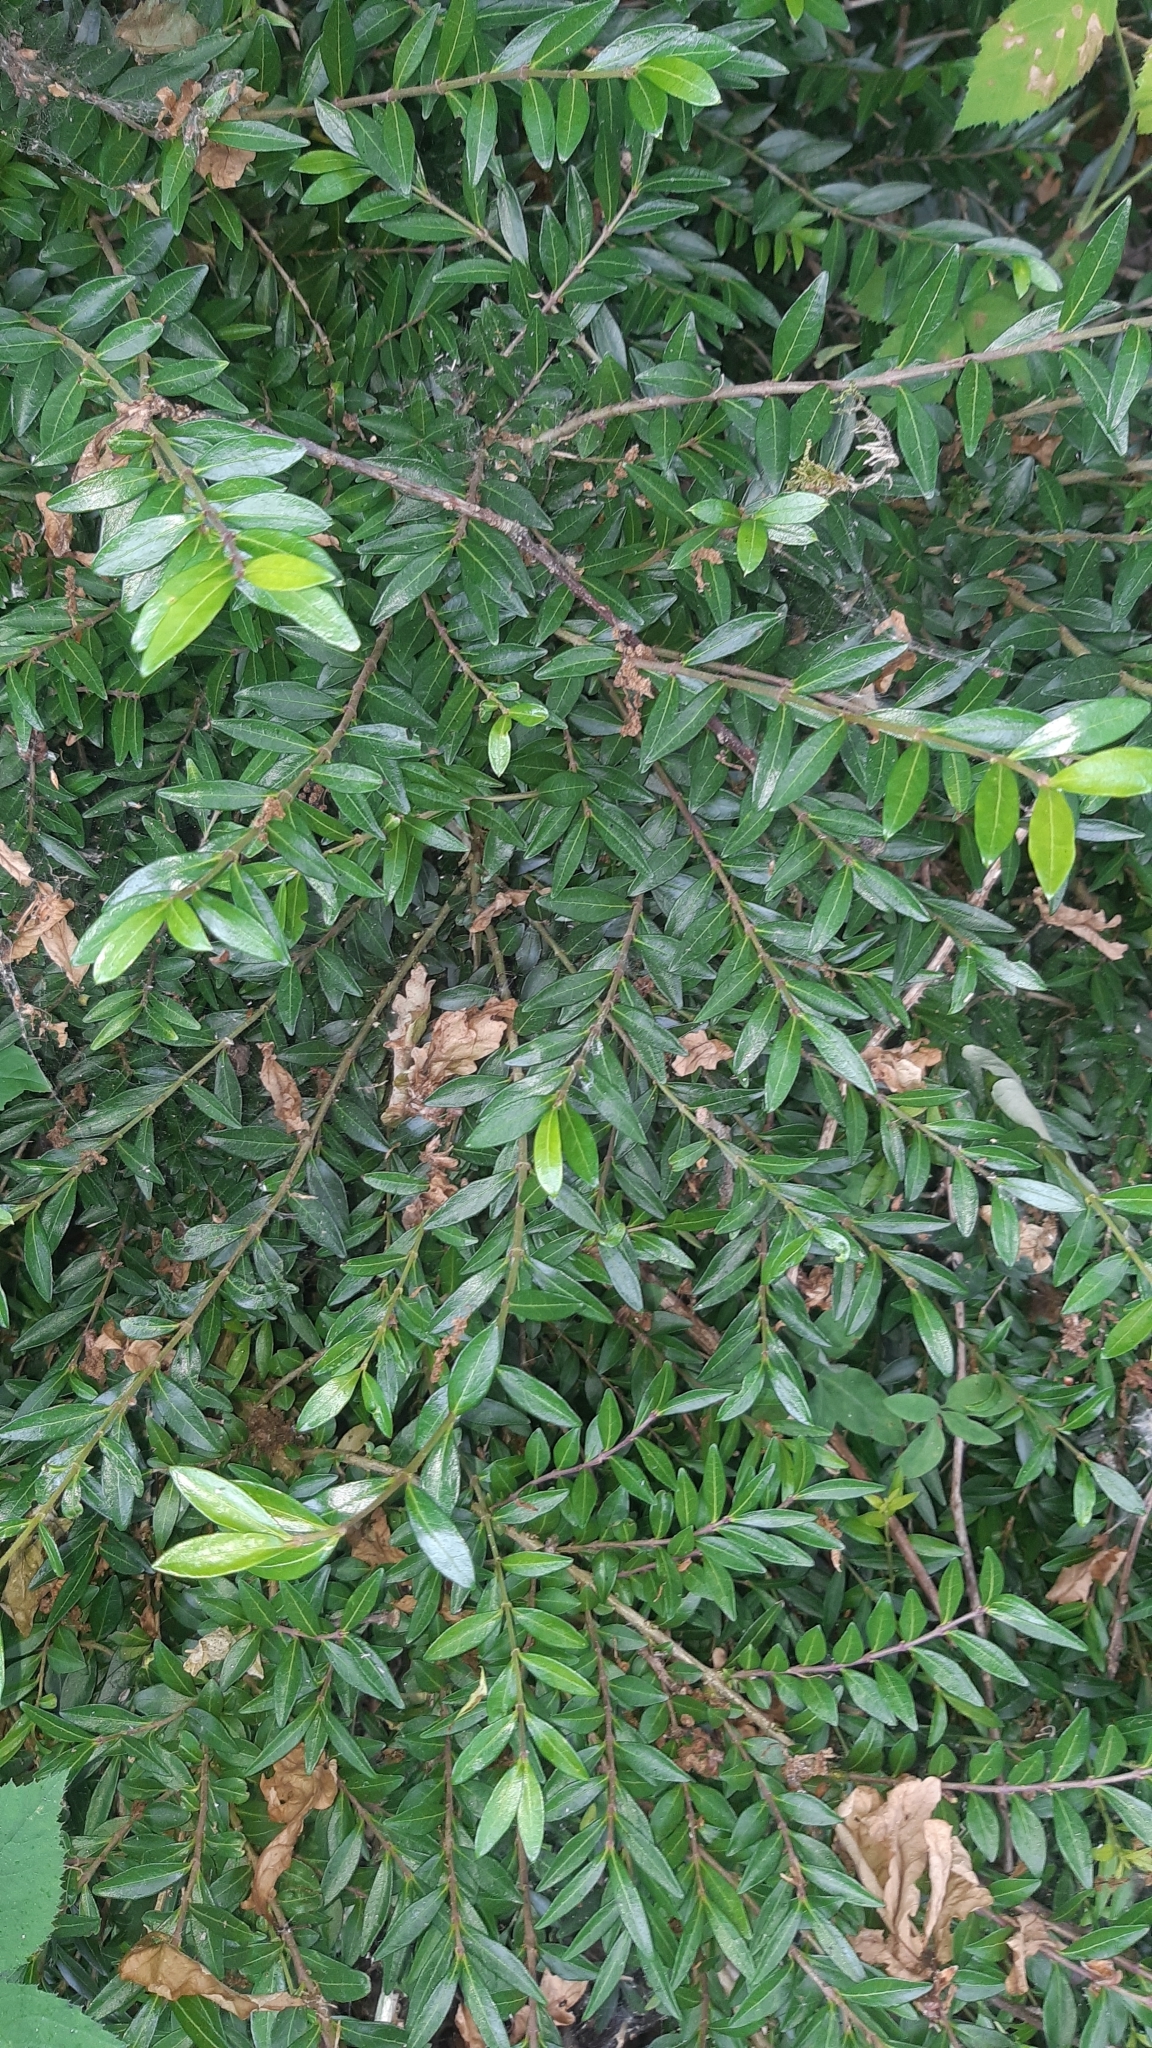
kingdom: Plantae
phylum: Tracheophyta
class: Magnoliopsida
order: Dipsacales
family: Caprifoliaceae
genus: Lonicera
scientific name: Lonicera ligustrina
